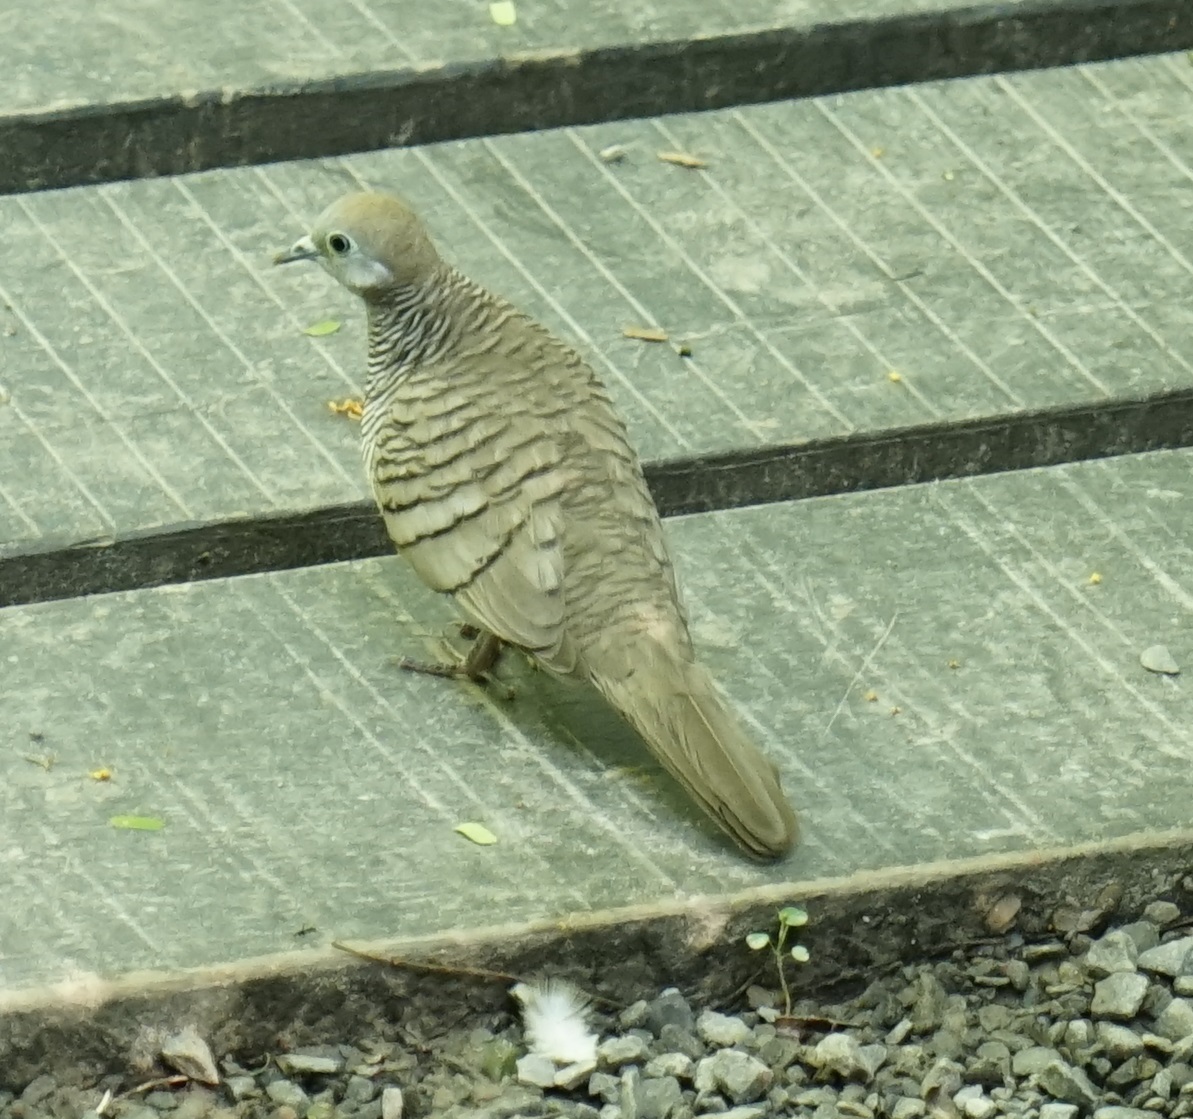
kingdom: Animalia
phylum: Chordata
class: Aves
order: Columbiformes
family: Columbidae
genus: Geopelia
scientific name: Geopelia striata
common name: Zebra dove
